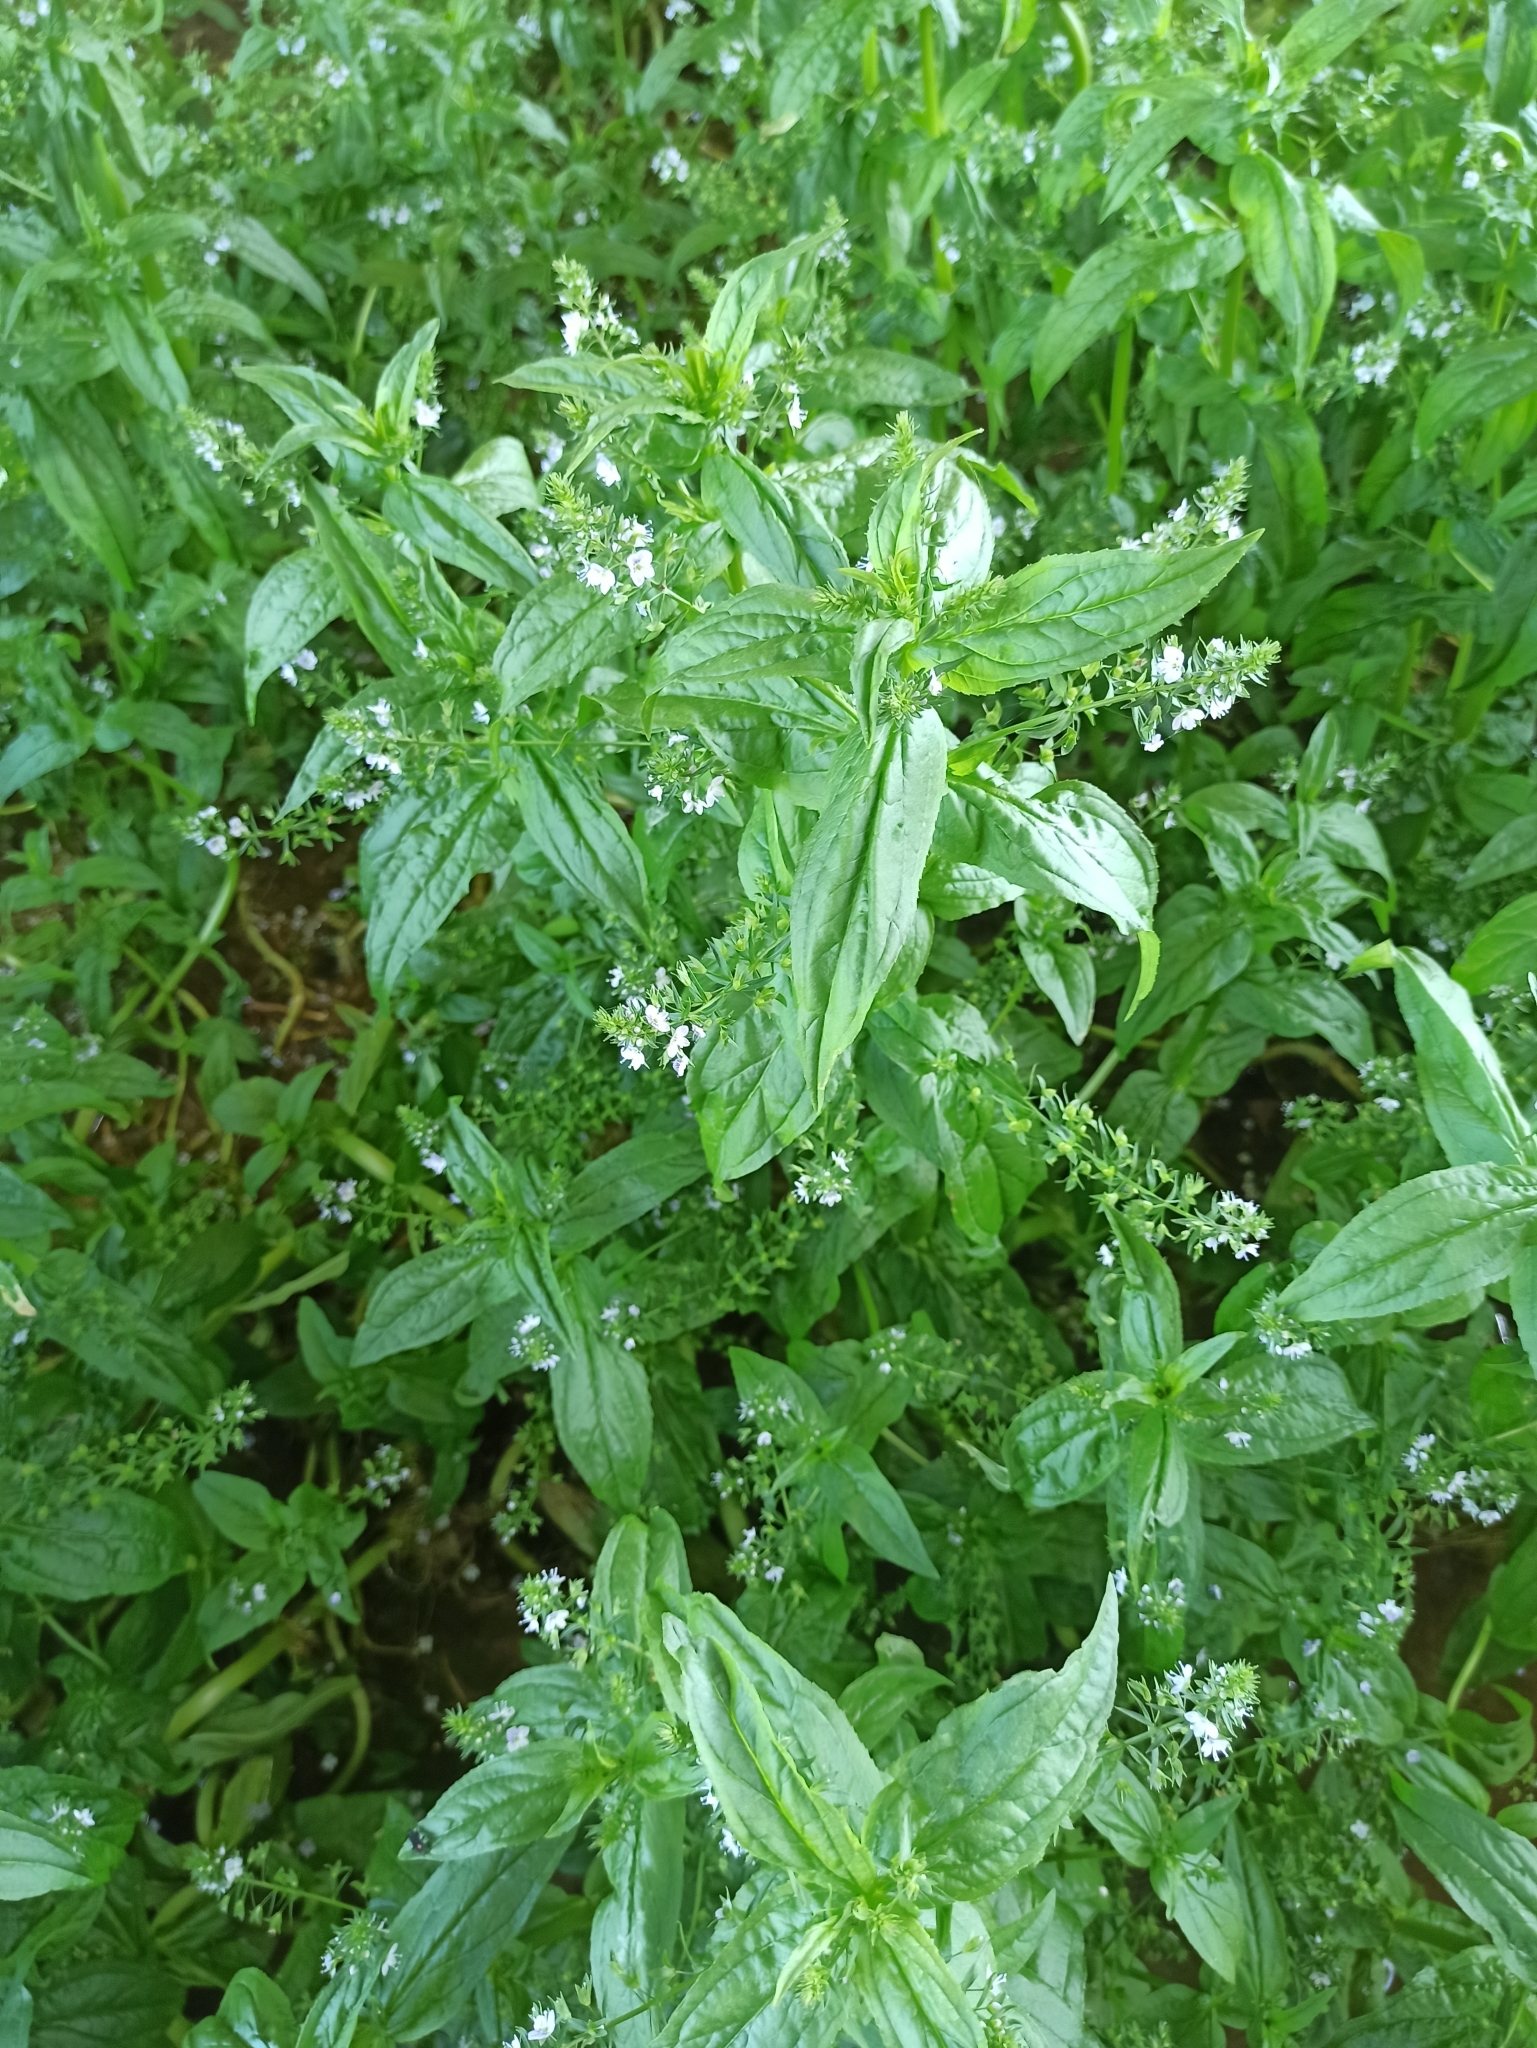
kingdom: Plantae
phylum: Tracheophyta
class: Magnoliopsida
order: Lamiales
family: Plantaginaceae
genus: Veronica
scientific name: Veronica anagallis-aquatica
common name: Water speedwell
